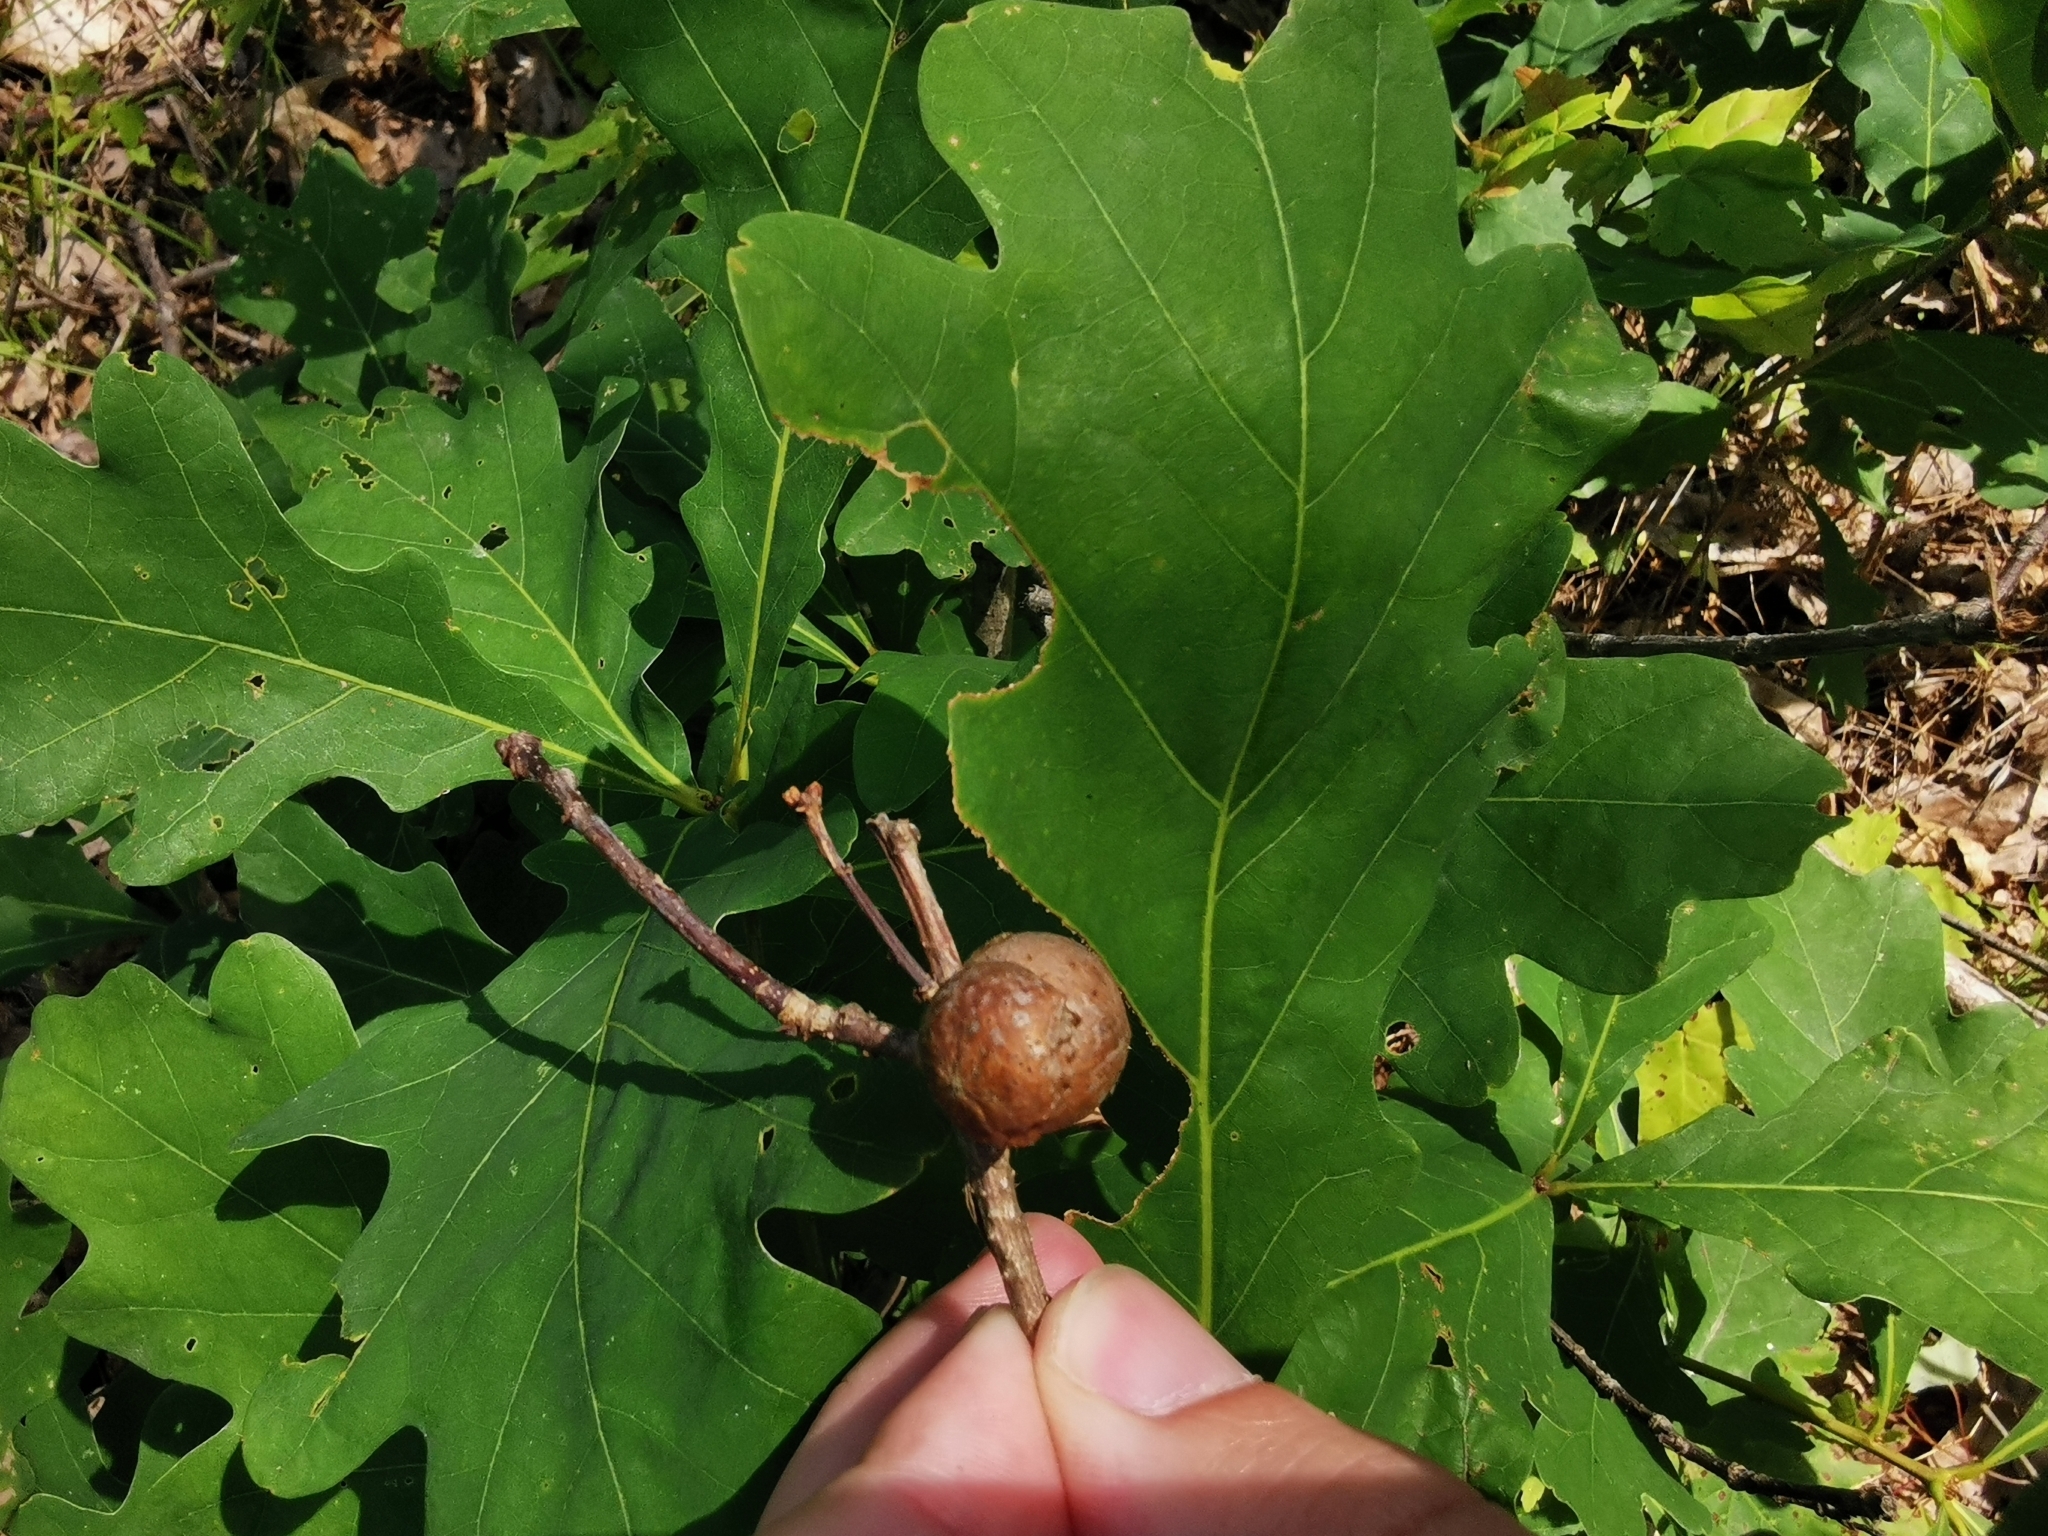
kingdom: Animalia
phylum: Arthropoda
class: Insecta
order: Hymenoptera
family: Cynipidae
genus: Disholcaspis
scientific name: Disholcaspis quercusglobulus
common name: Round bullet gall wasp
